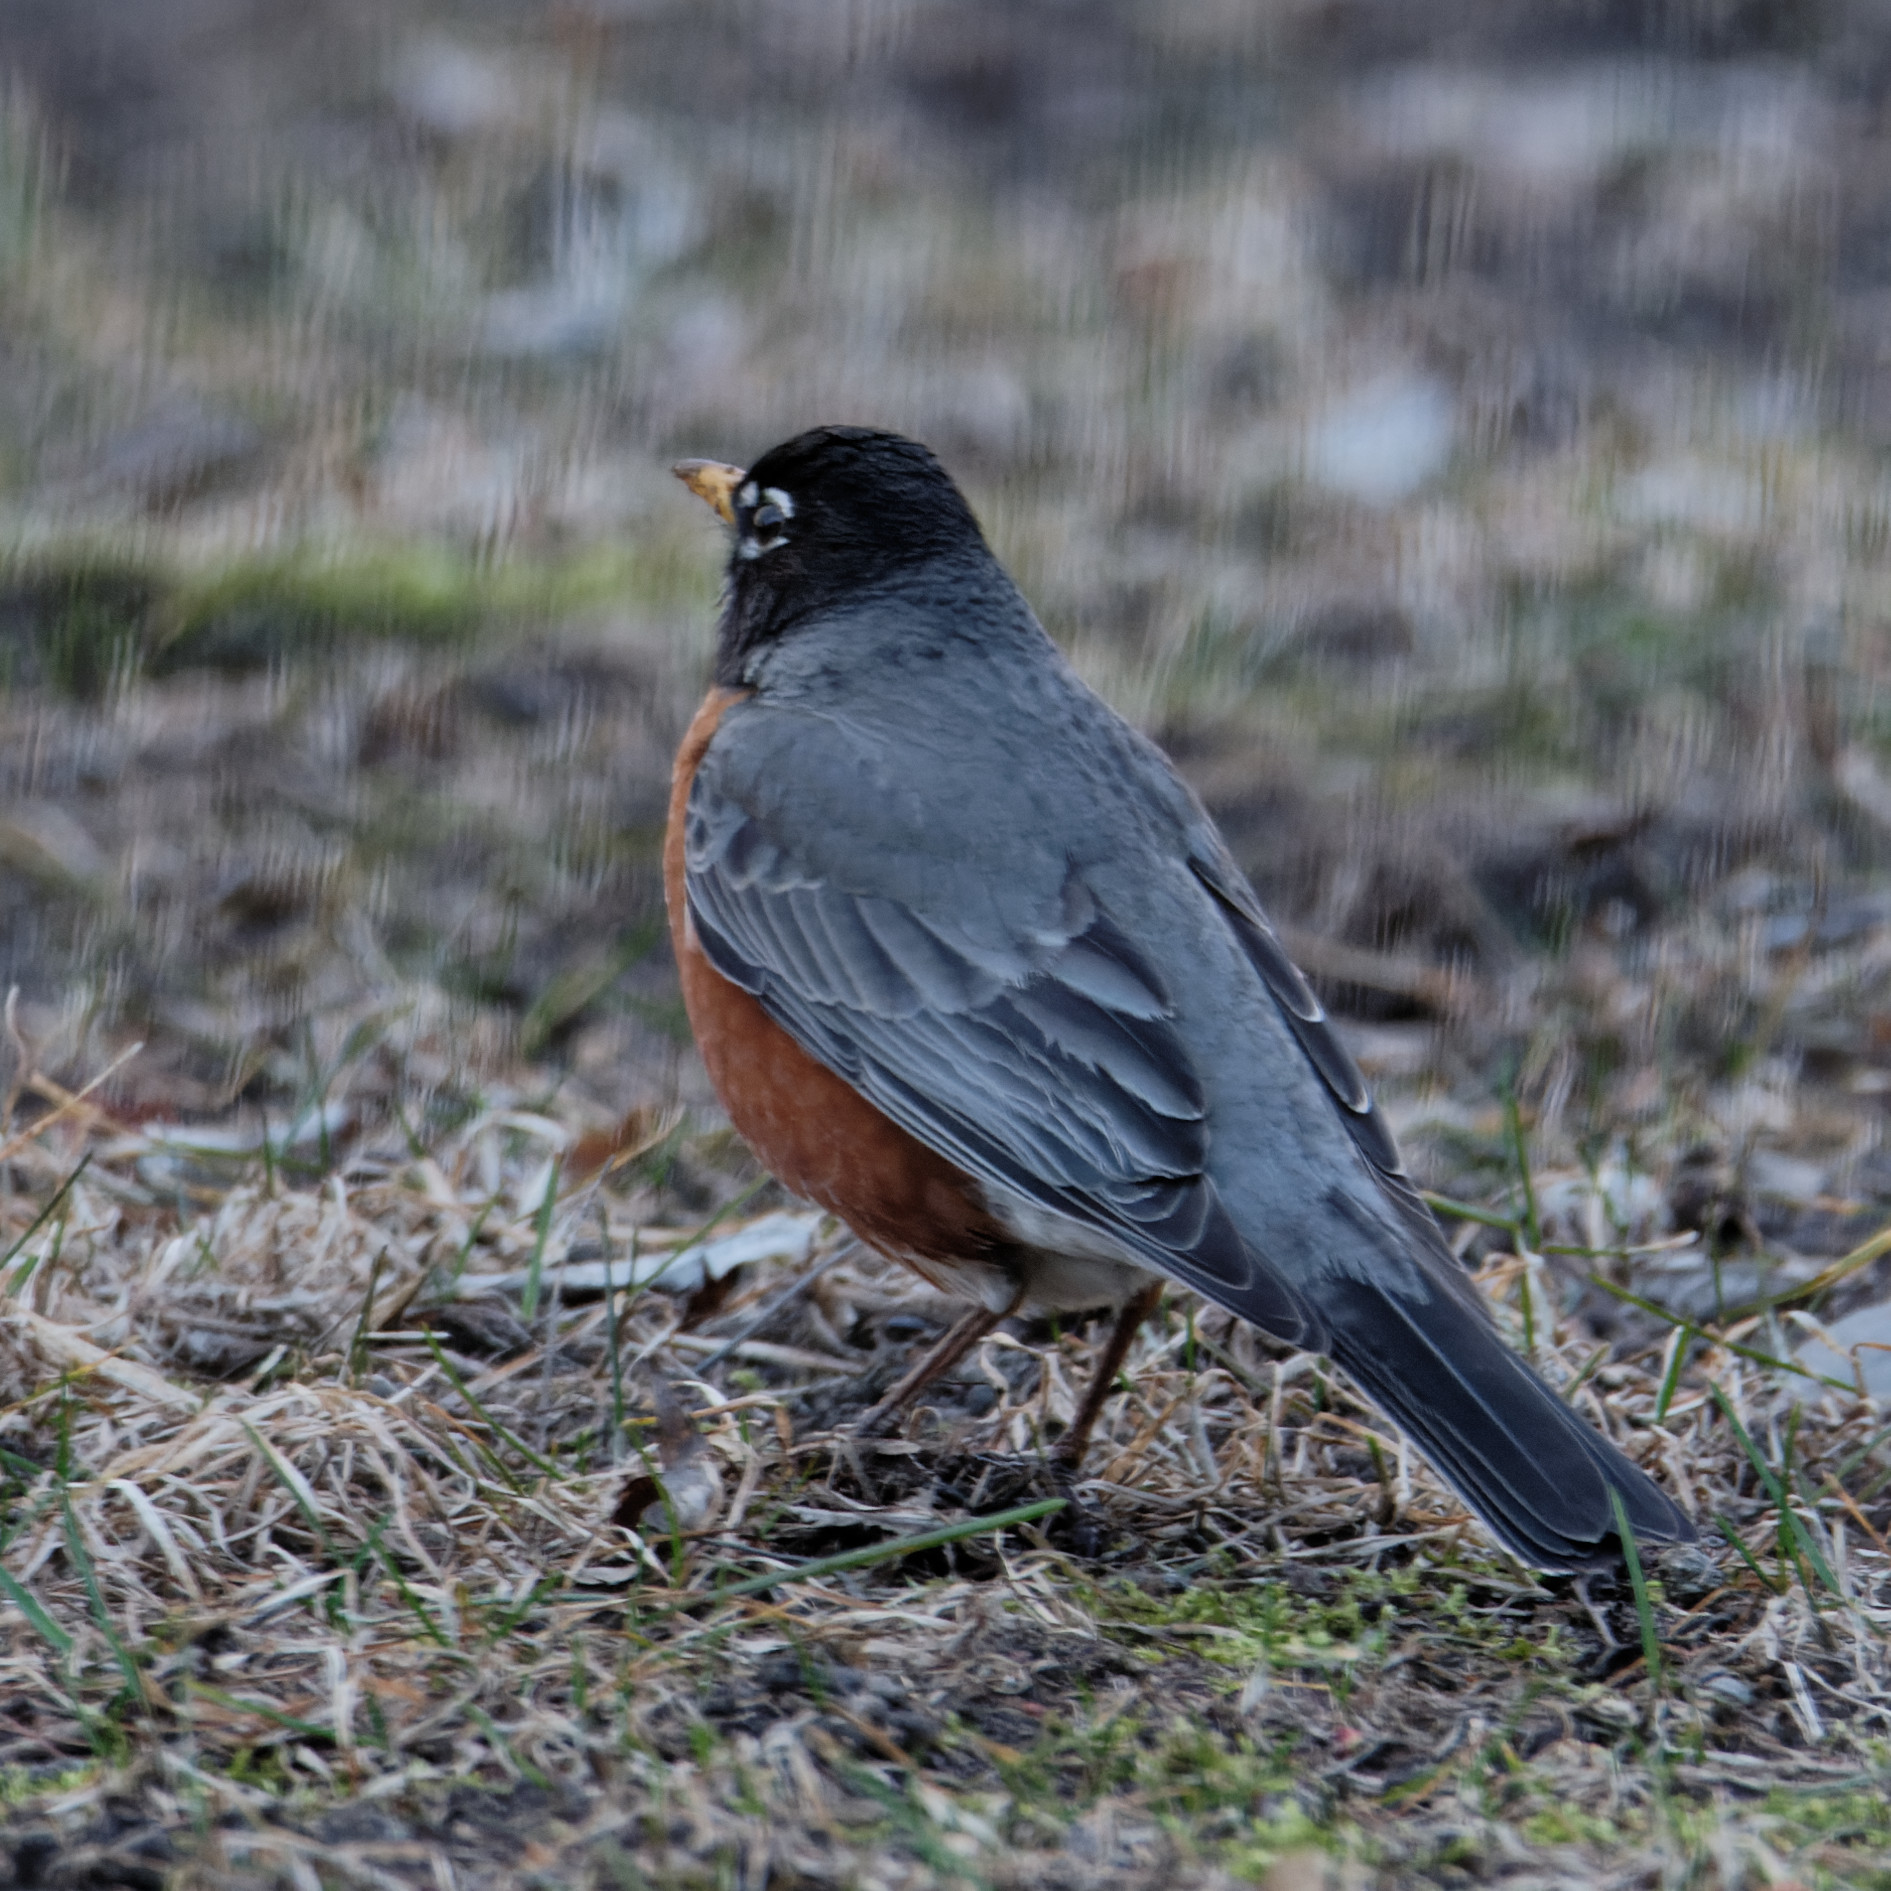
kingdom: Animalia
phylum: Chordata
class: Aves
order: Passeriformes
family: Turdidae
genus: Turdus
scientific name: Turdus migratorius
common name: American robin
